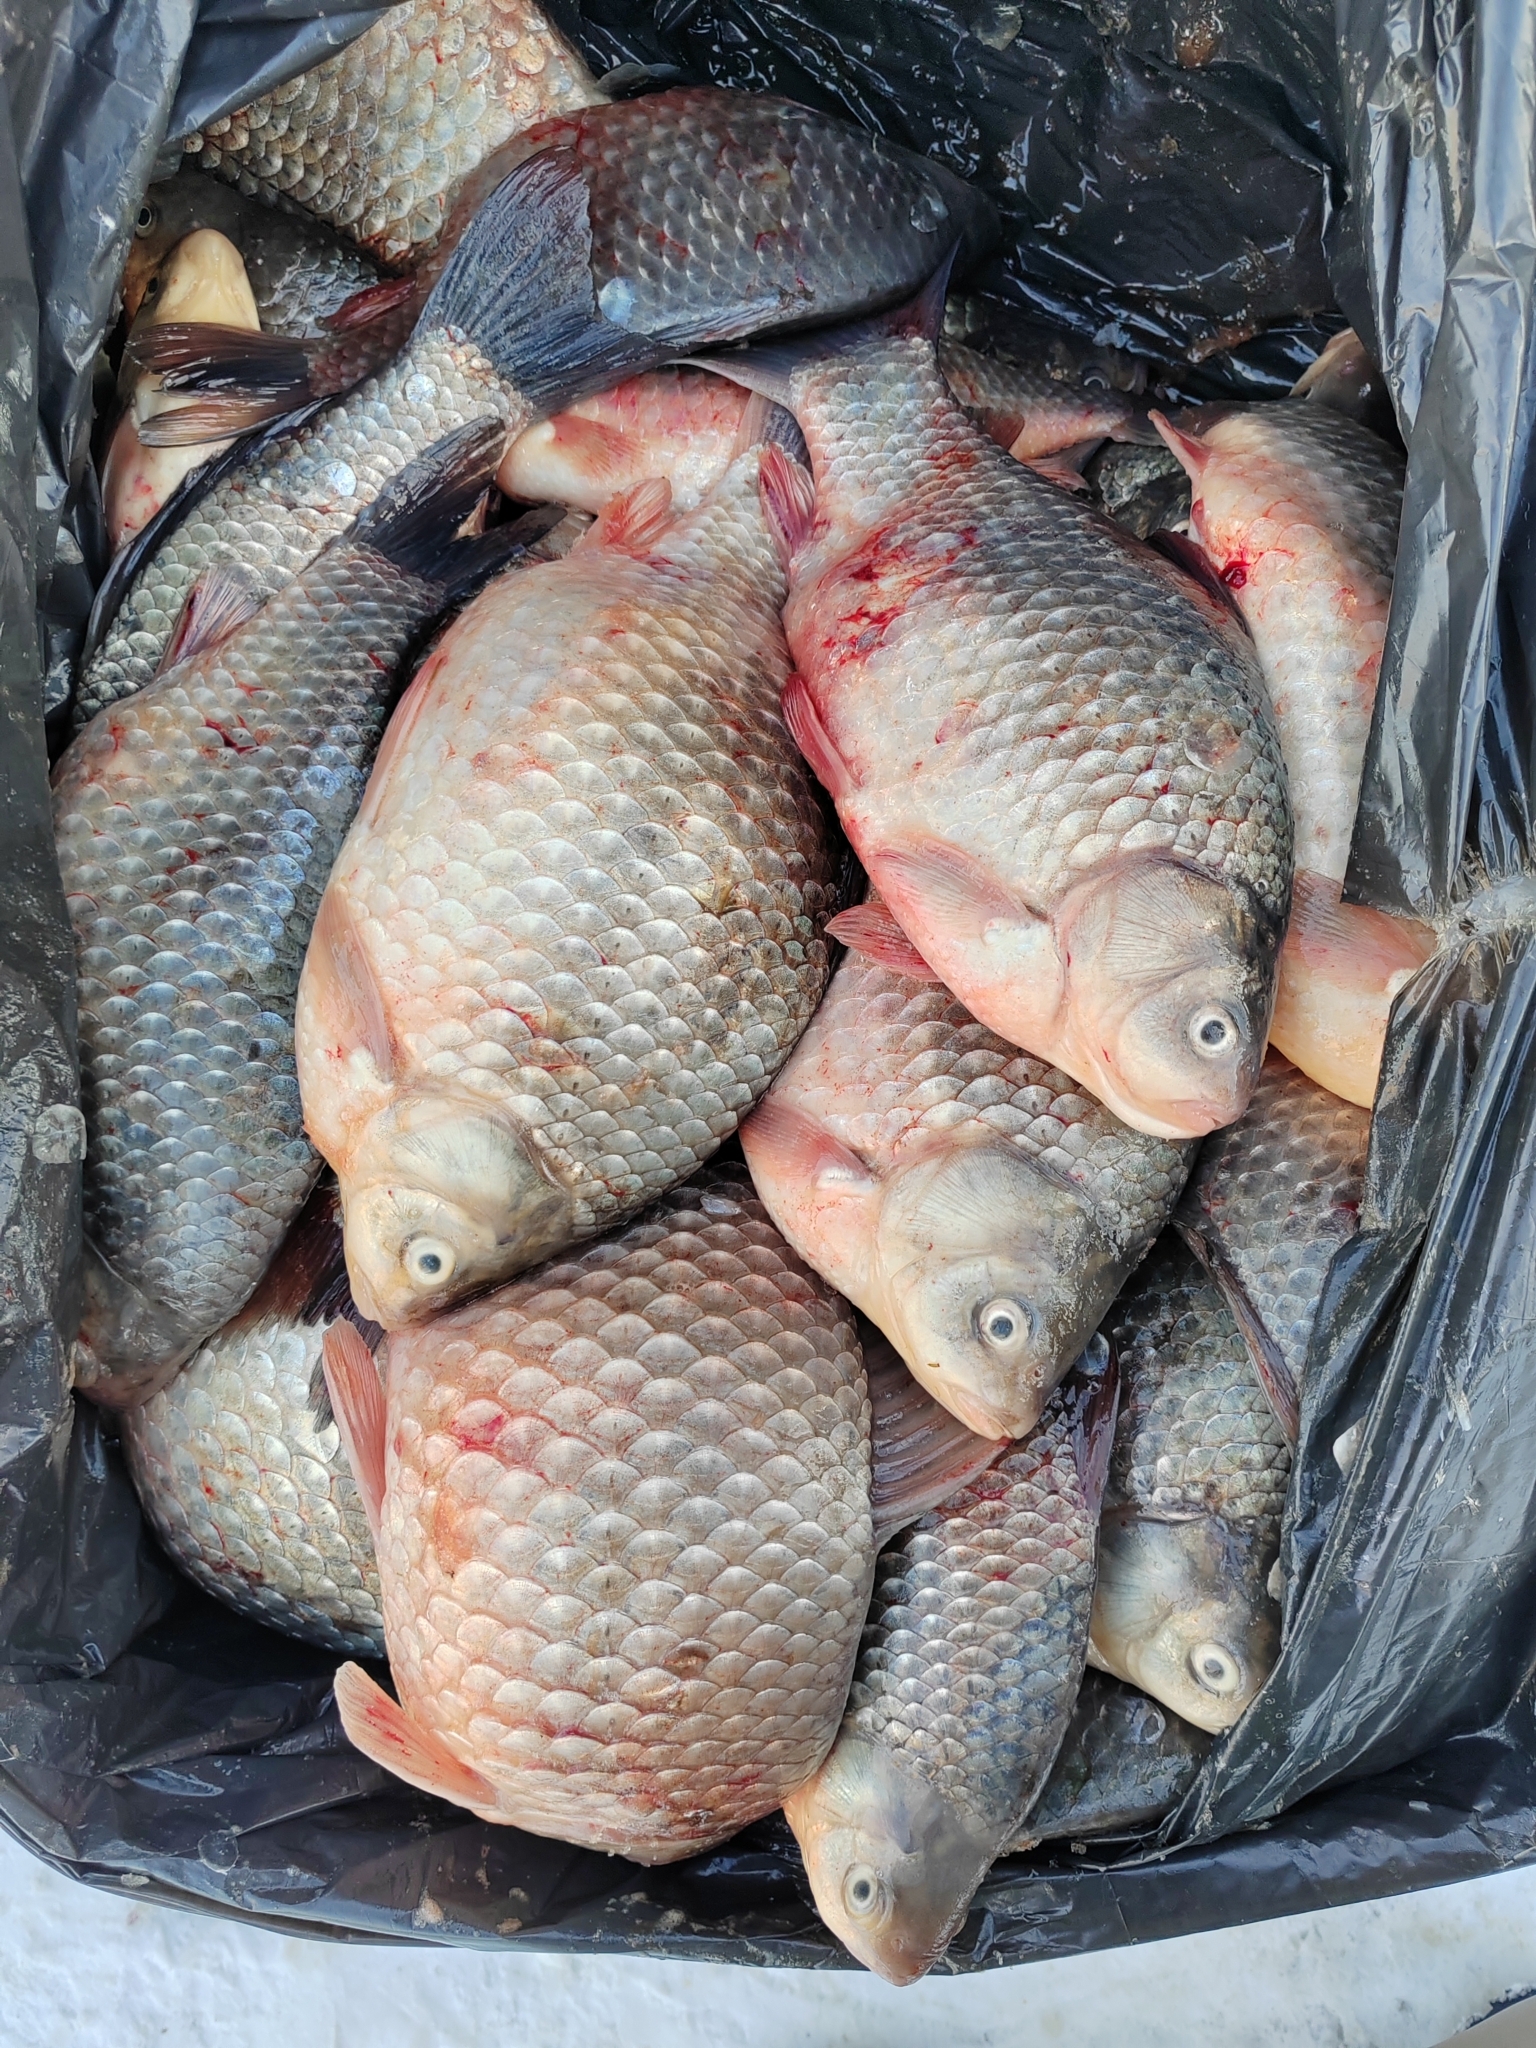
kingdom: Animalia
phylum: Chordata
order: Cypriniformes
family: Cyprinidae
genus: Carassius
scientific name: Carassius gibelio
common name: Prussian carp
